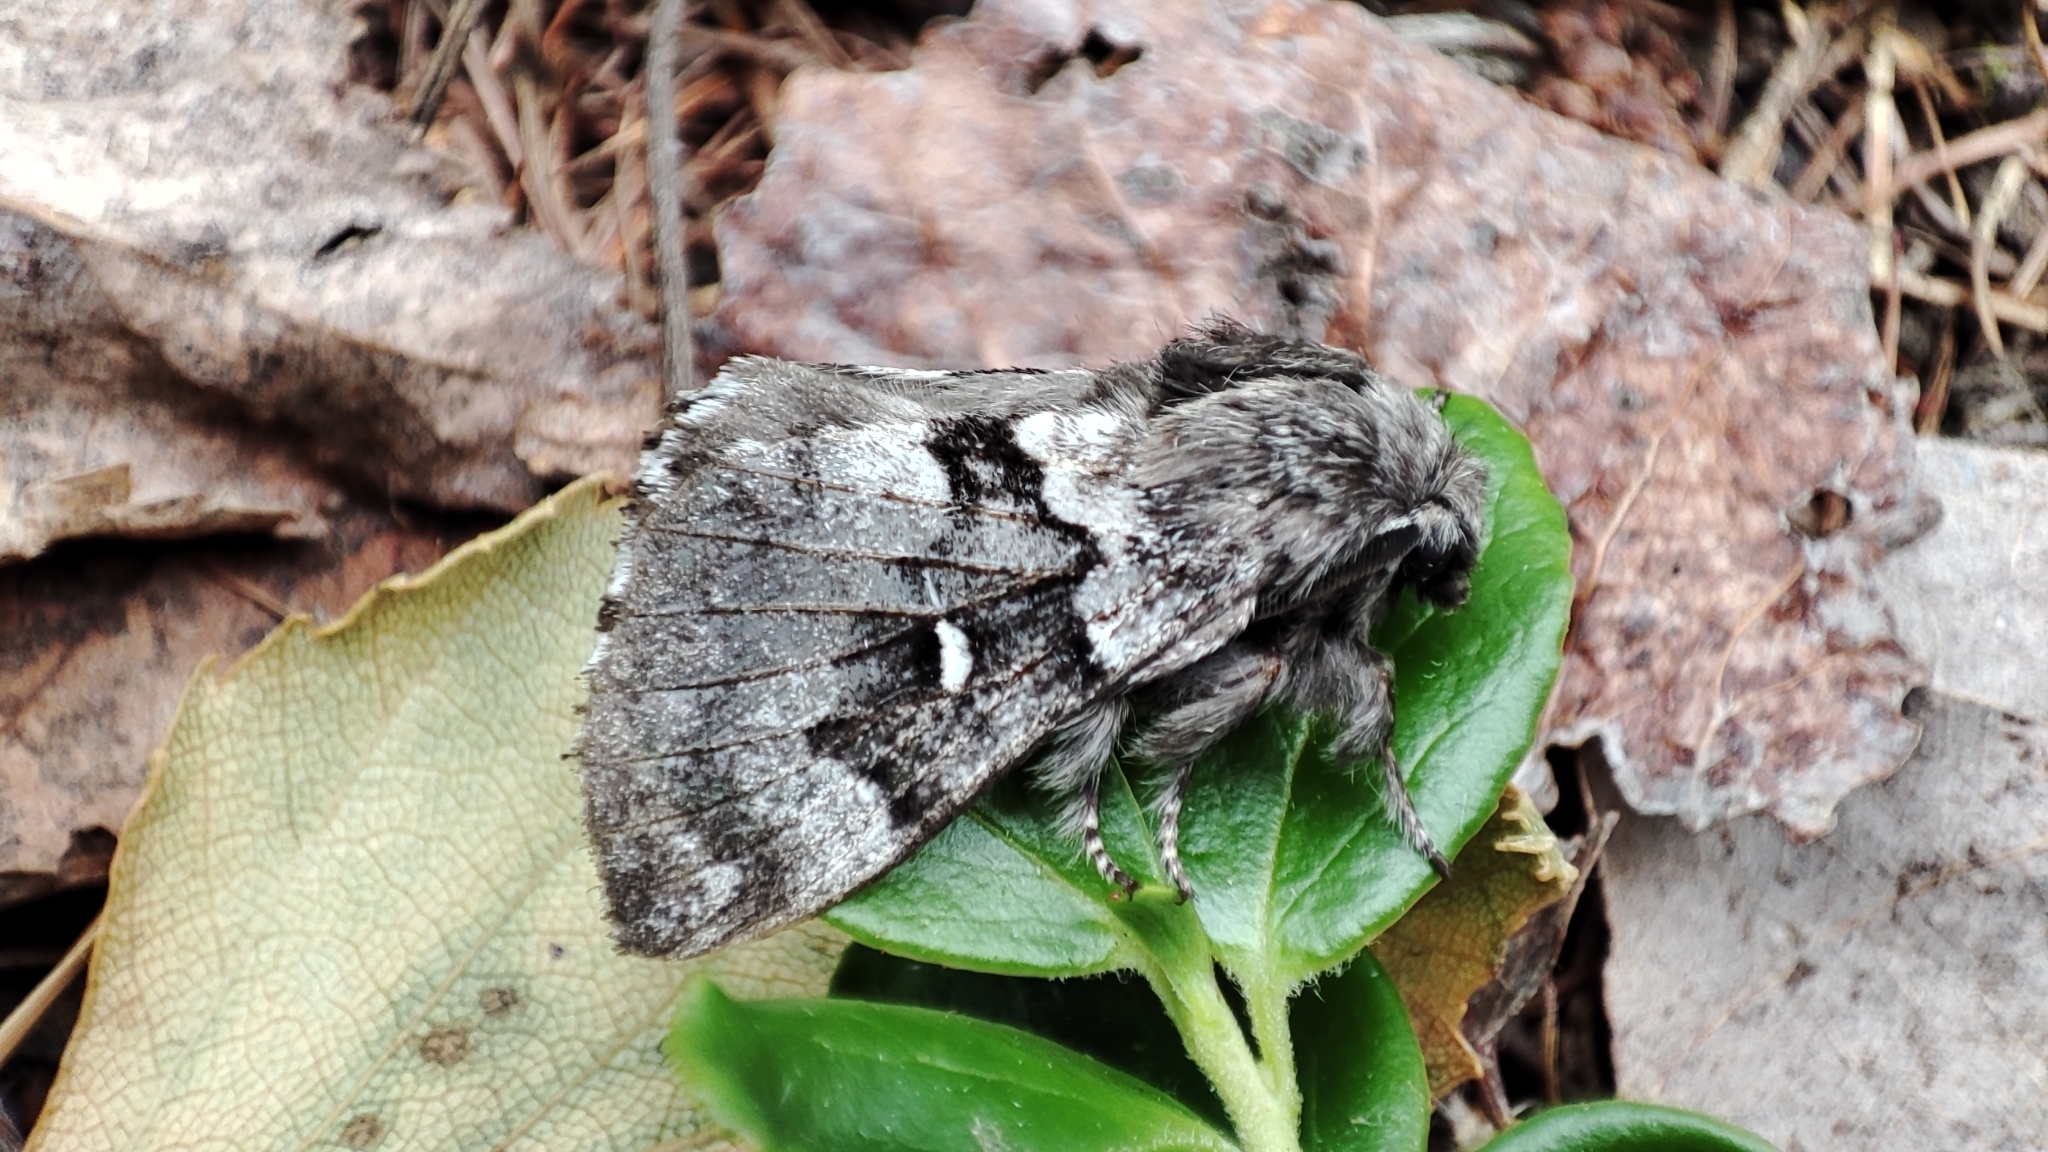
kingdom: Animalia
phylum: Arthropoda
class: Insecta
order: Lepidoptera
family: Lasiocampidae
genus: Cosmotriche
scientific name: Cosmotriche lobulina
